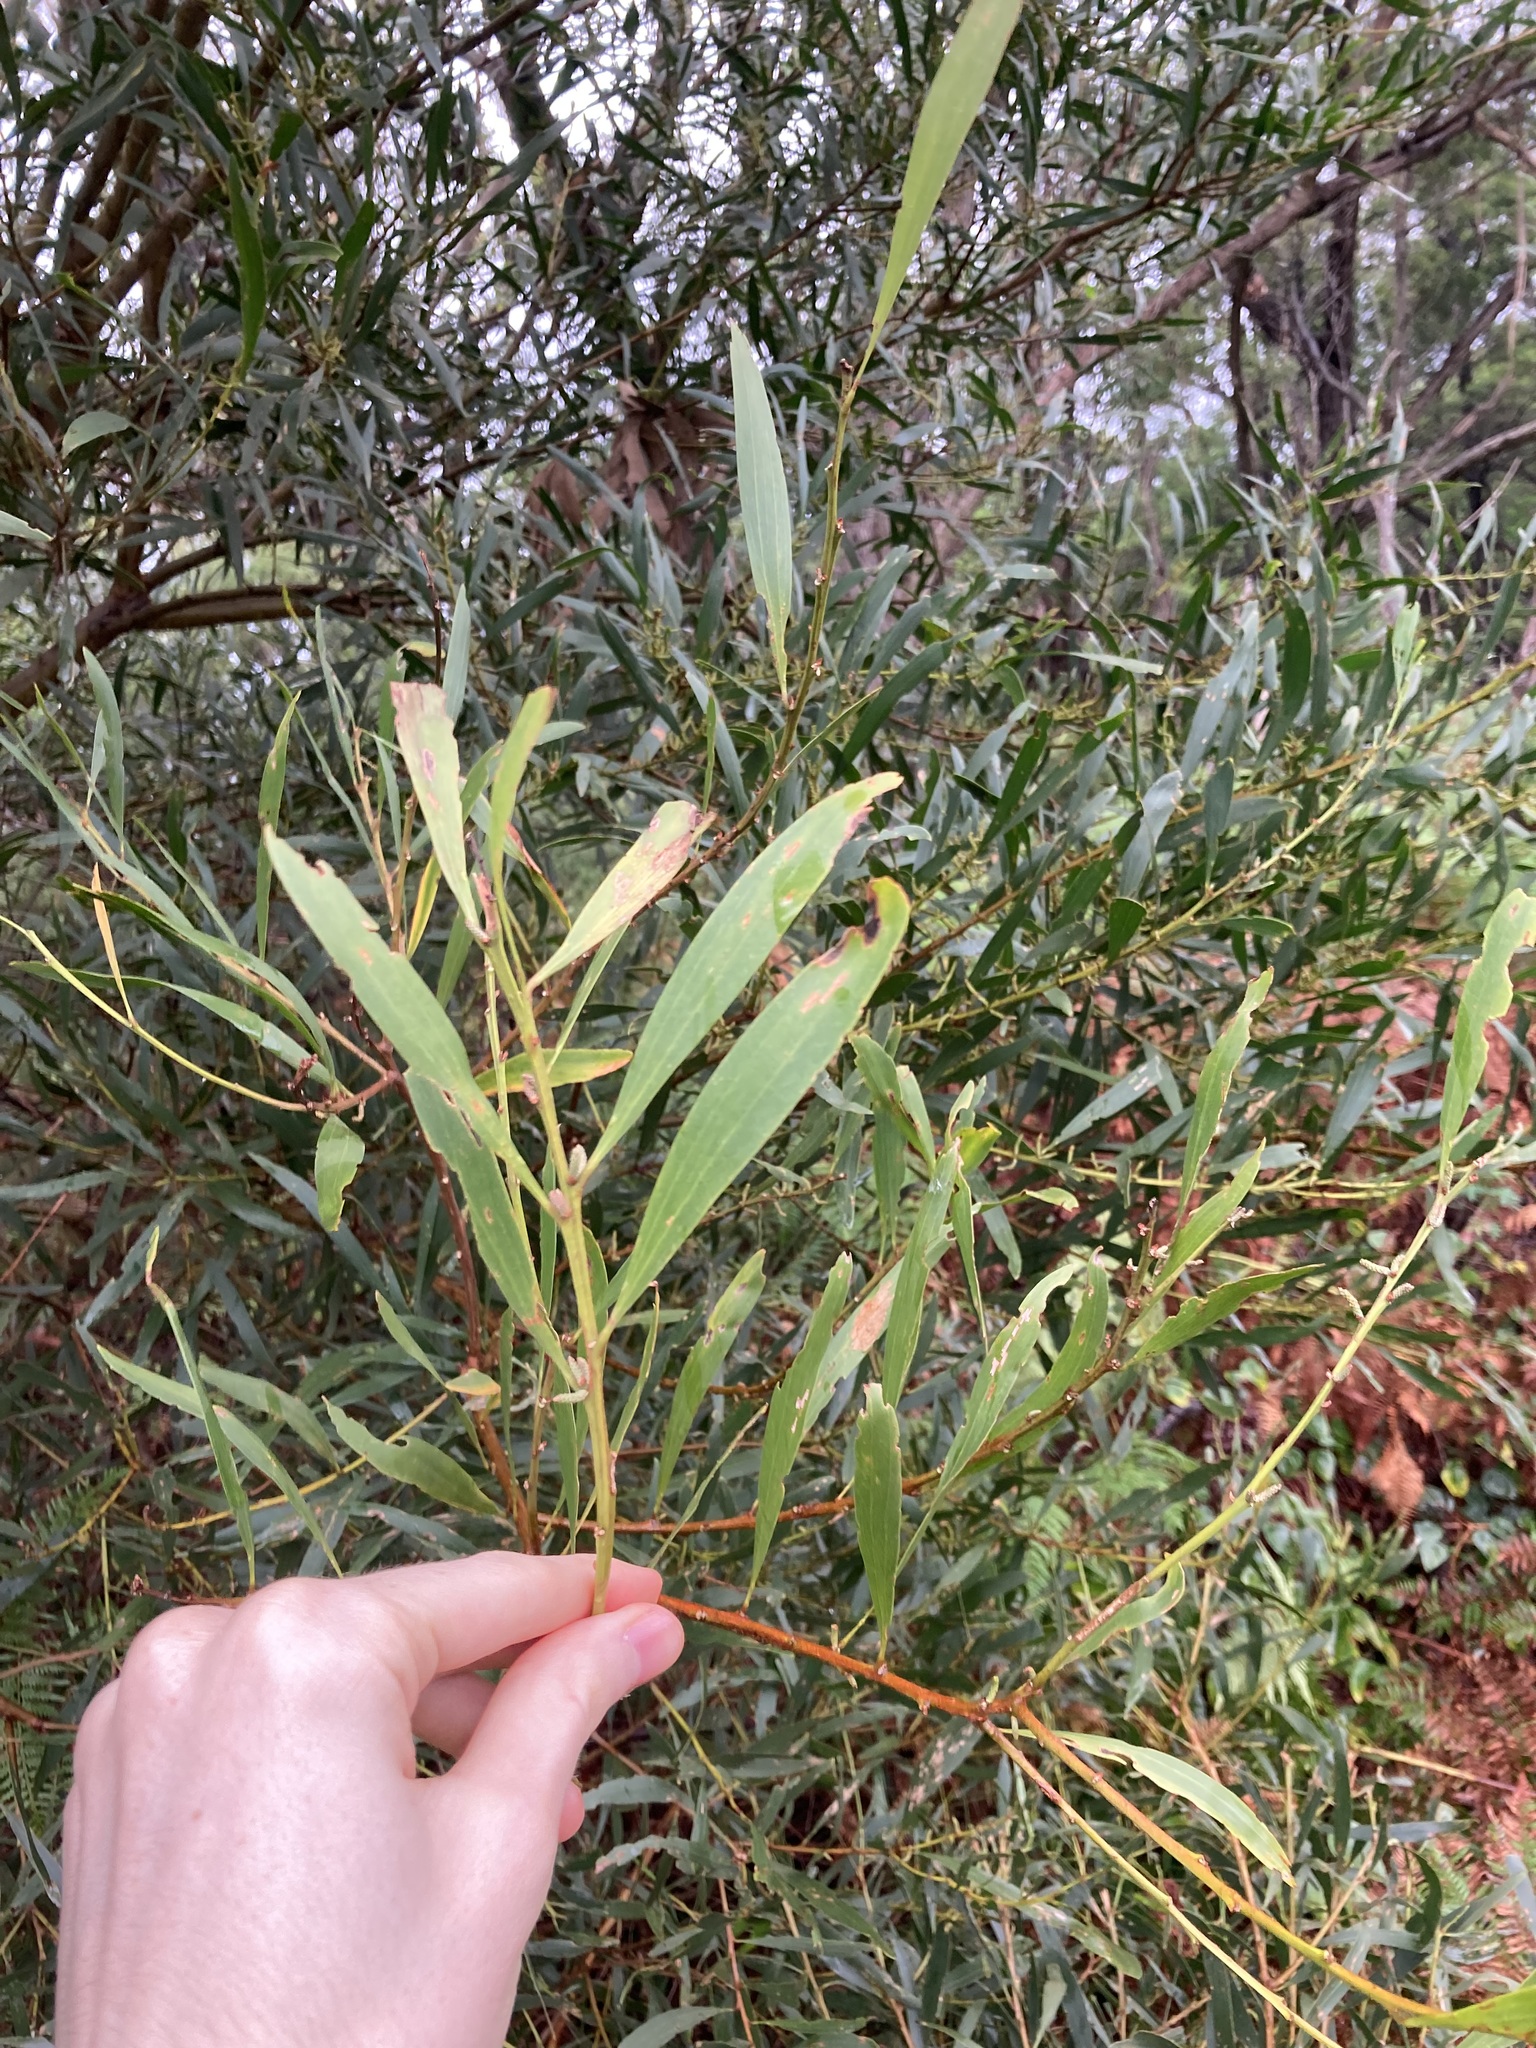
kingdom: Plantae
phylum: Tracheophyta
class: Magnoliopsida
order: Fabales
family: Fabaceae
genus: Acacia
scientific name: Acacia longifolia
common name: Sydney golden wattle
